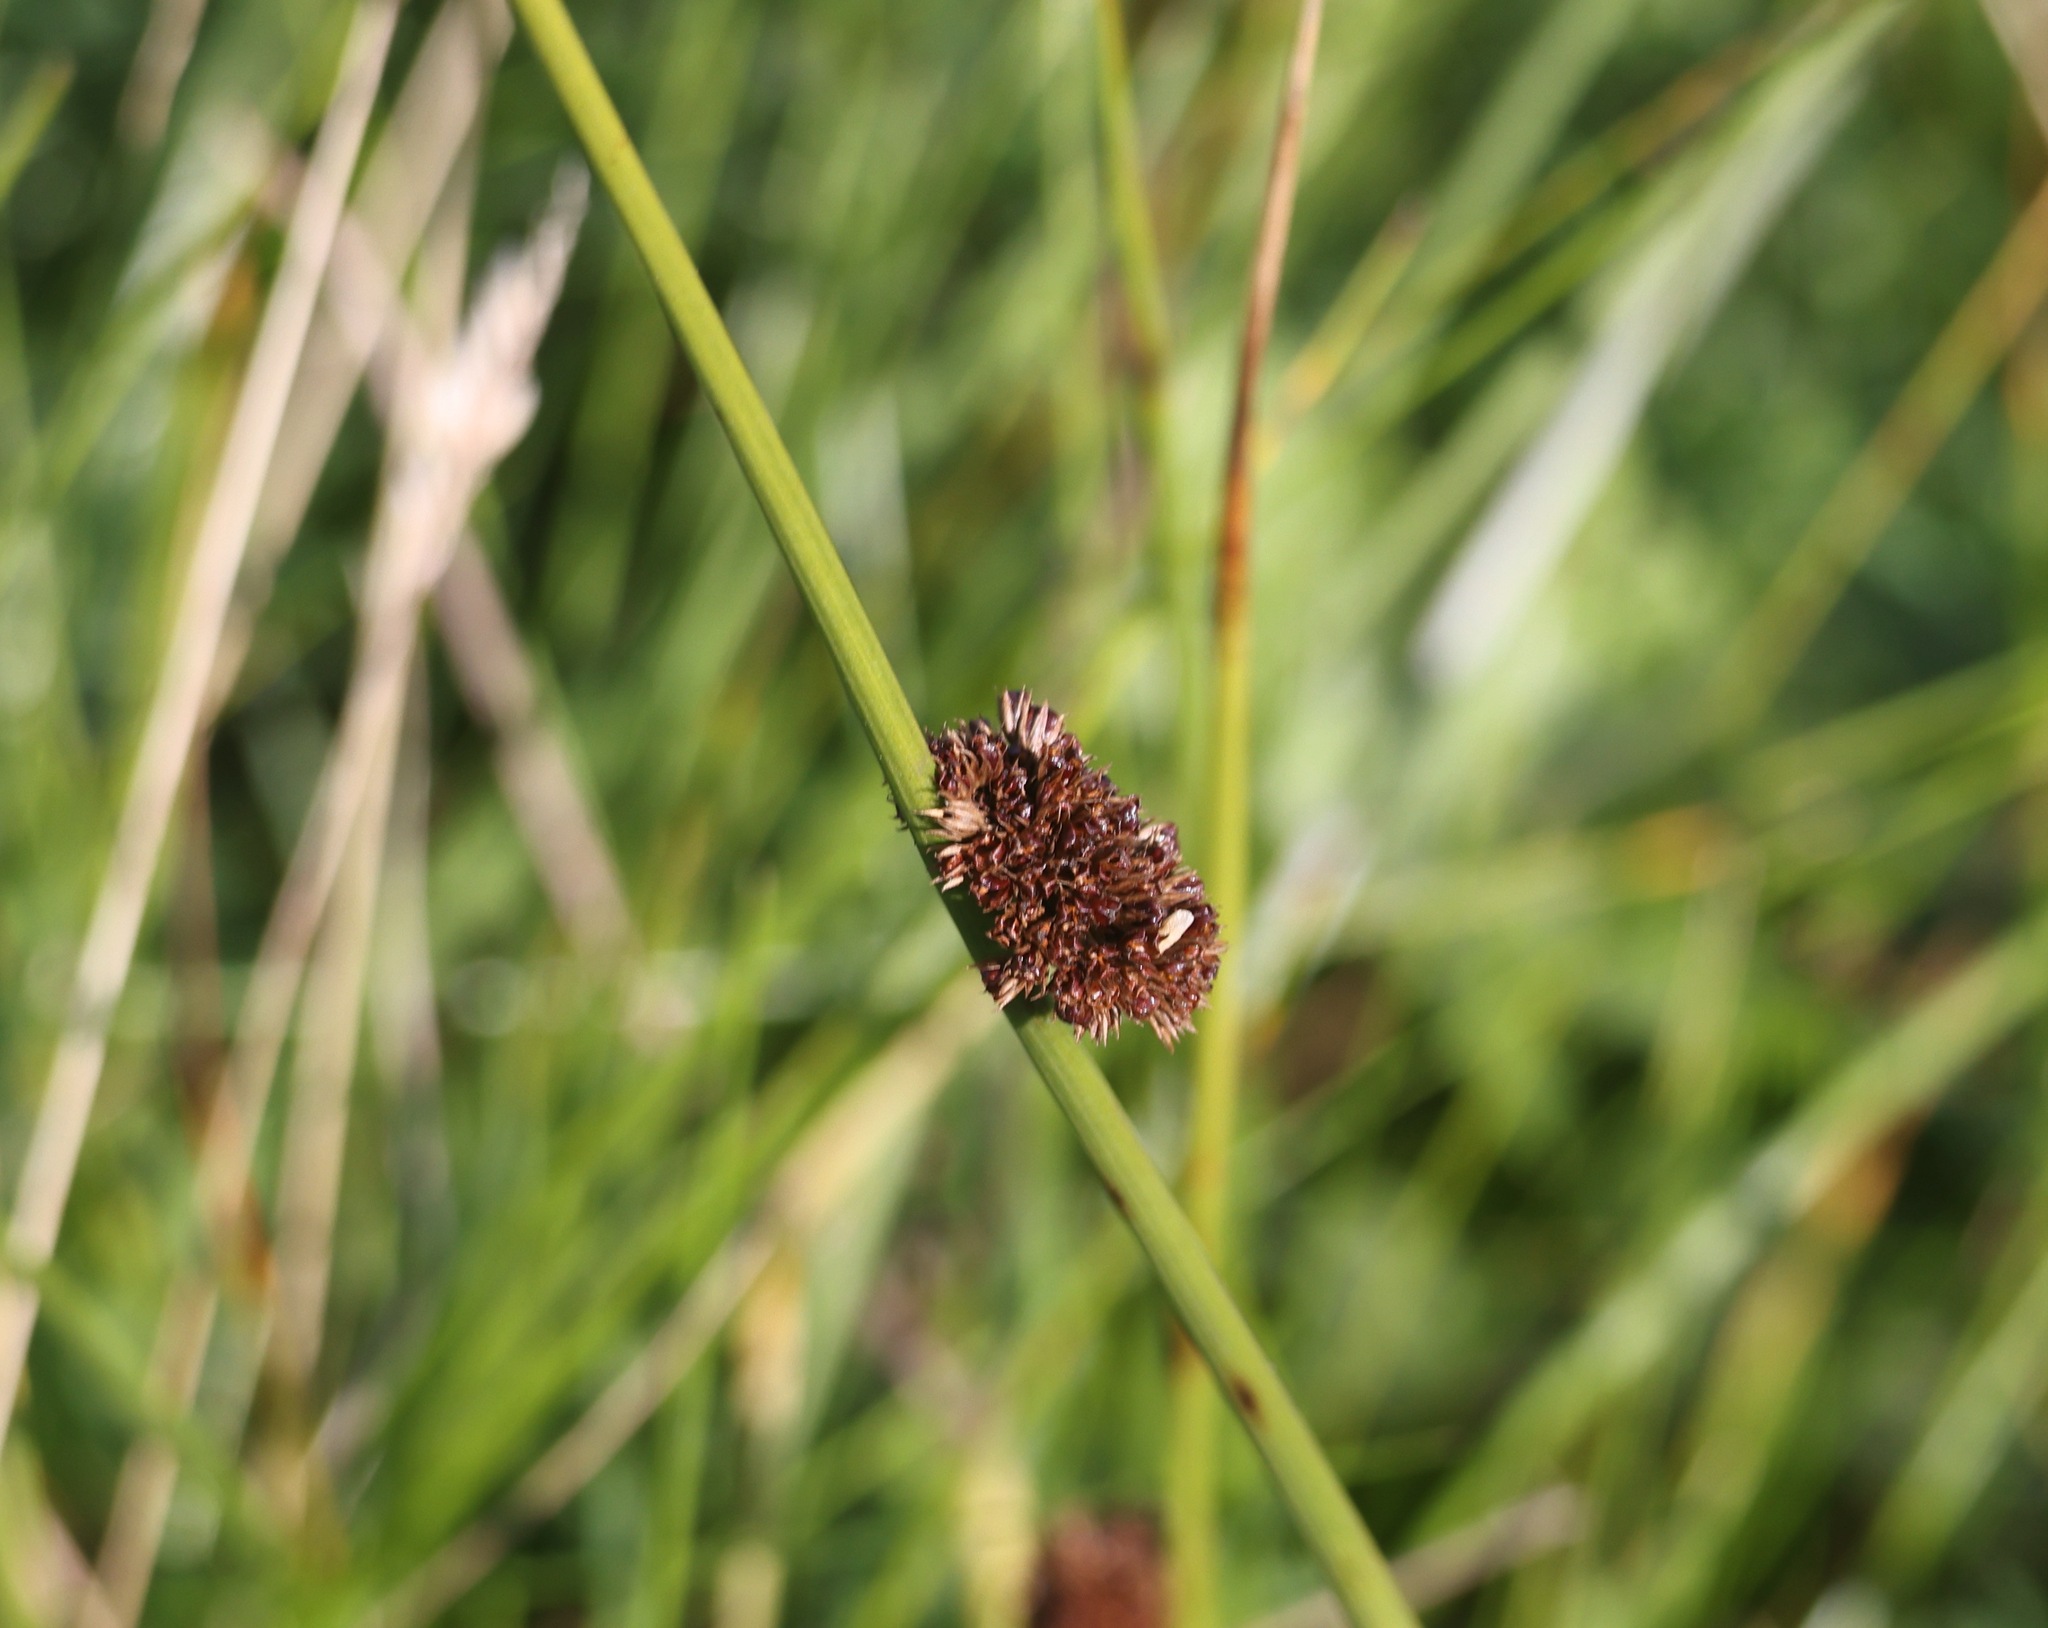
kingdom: Plantae
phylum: Tracheophyta
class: Liliopsida
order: Poales
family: Juncaceae
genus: Juncus
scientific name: Juncus conglomeratus
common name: Compact rush
